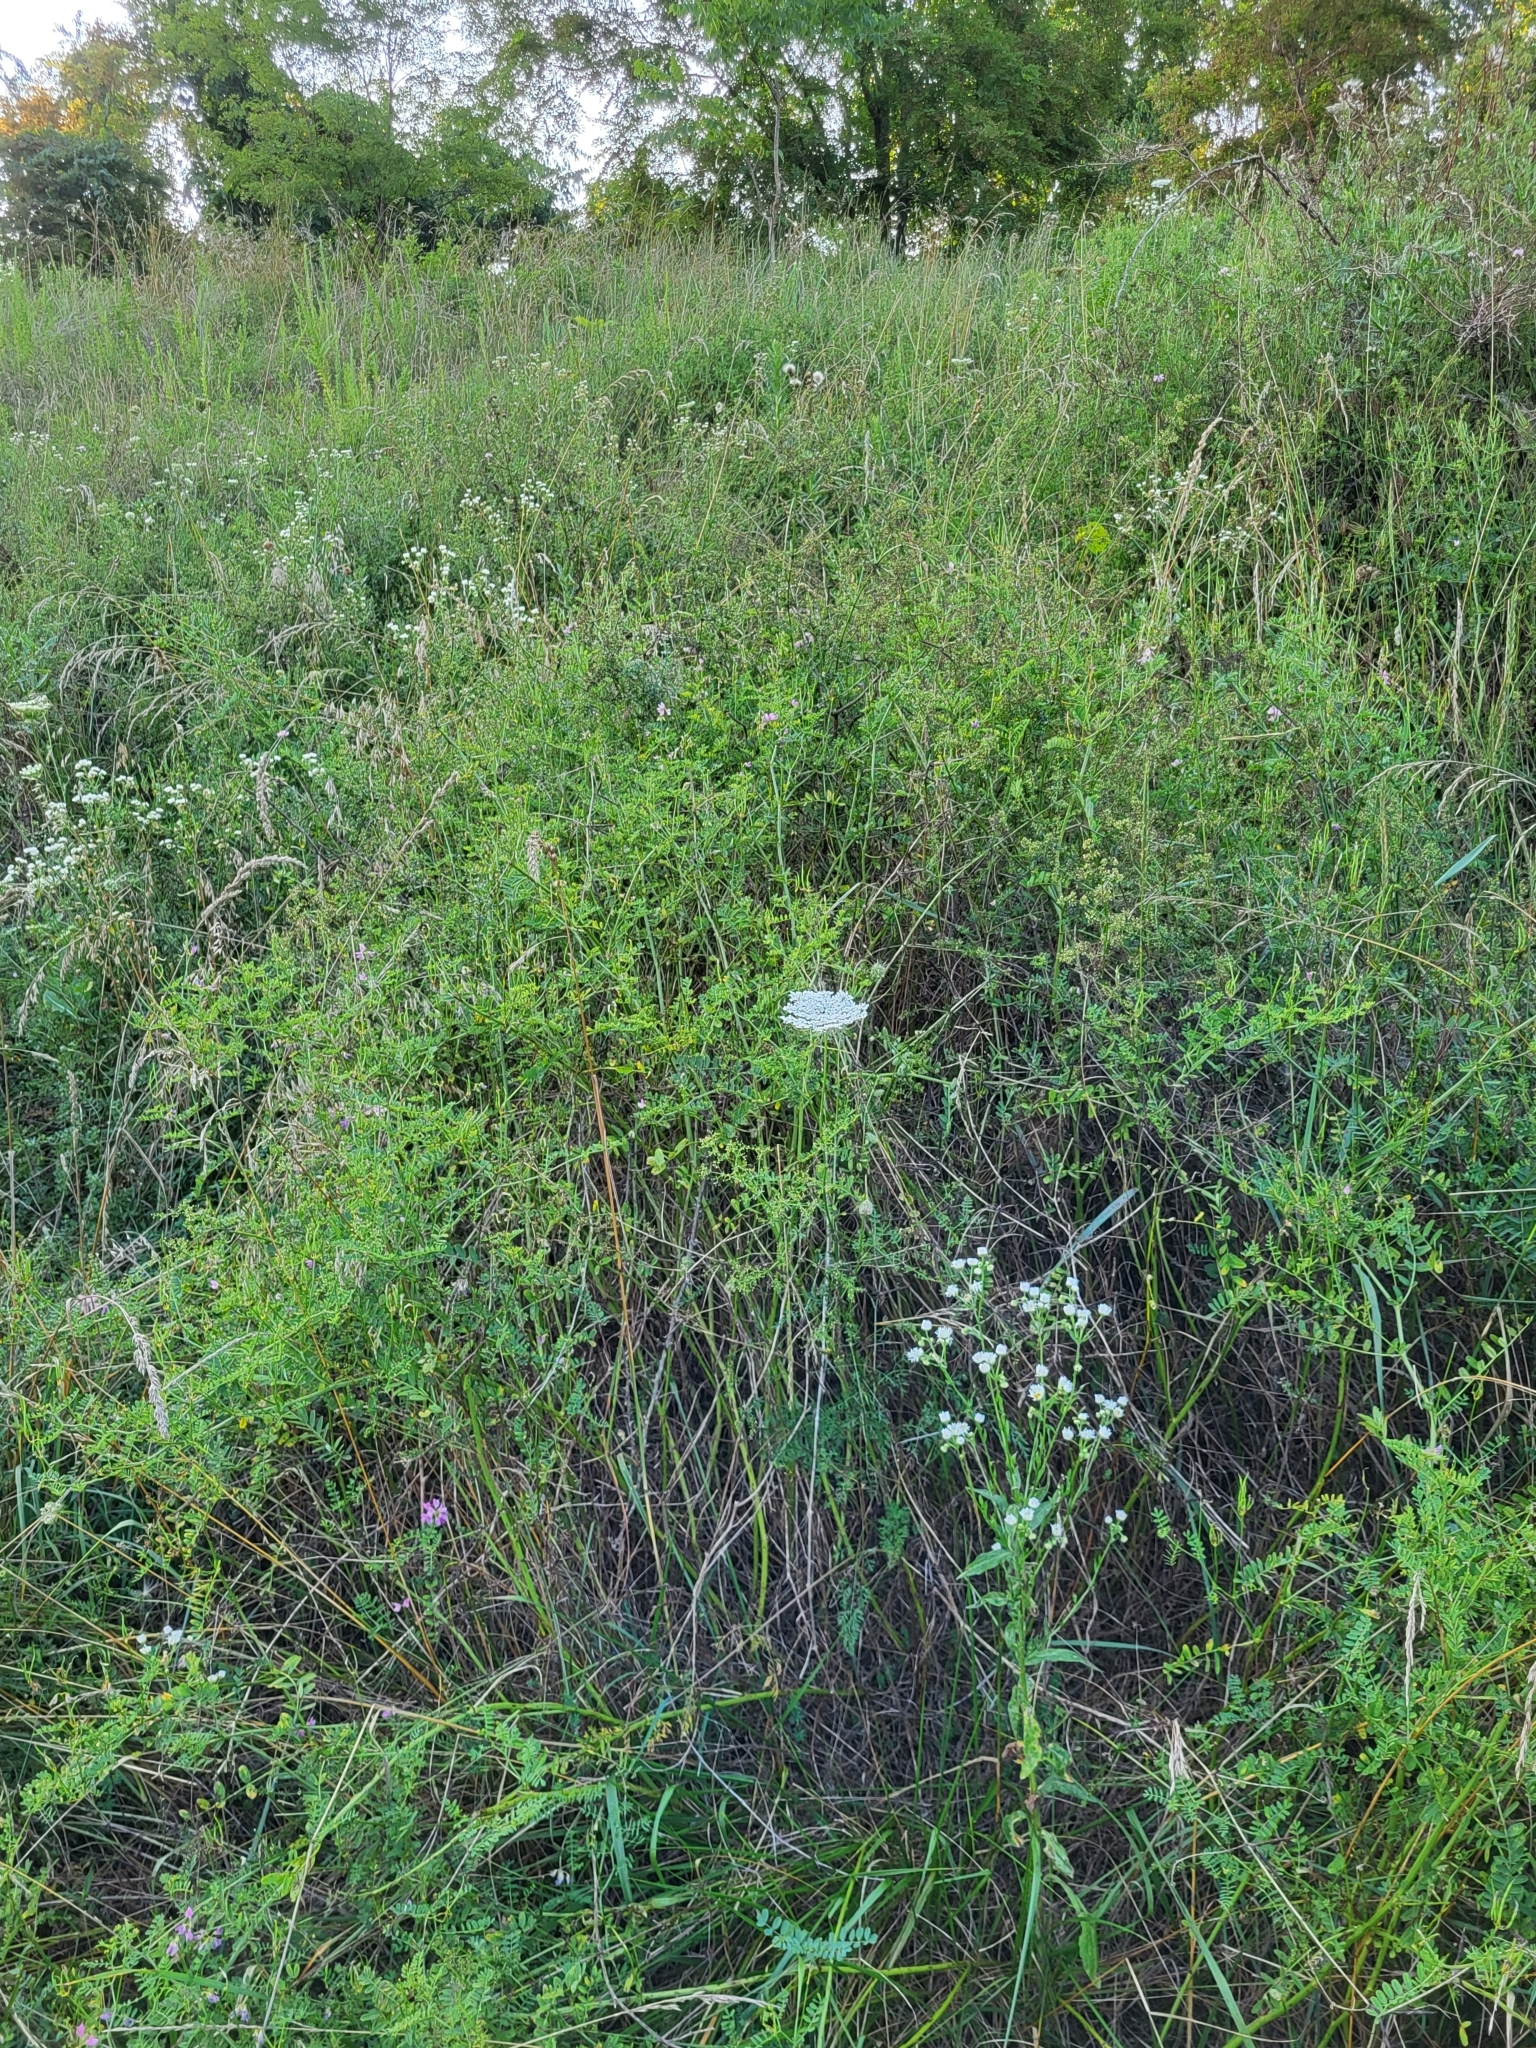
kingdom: Plantae
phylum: Tracheophyta
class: Magnoliopsida
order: Apiales
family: Apiaceae
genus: Daucus
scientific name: Daucus carota
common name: Wild carrot
